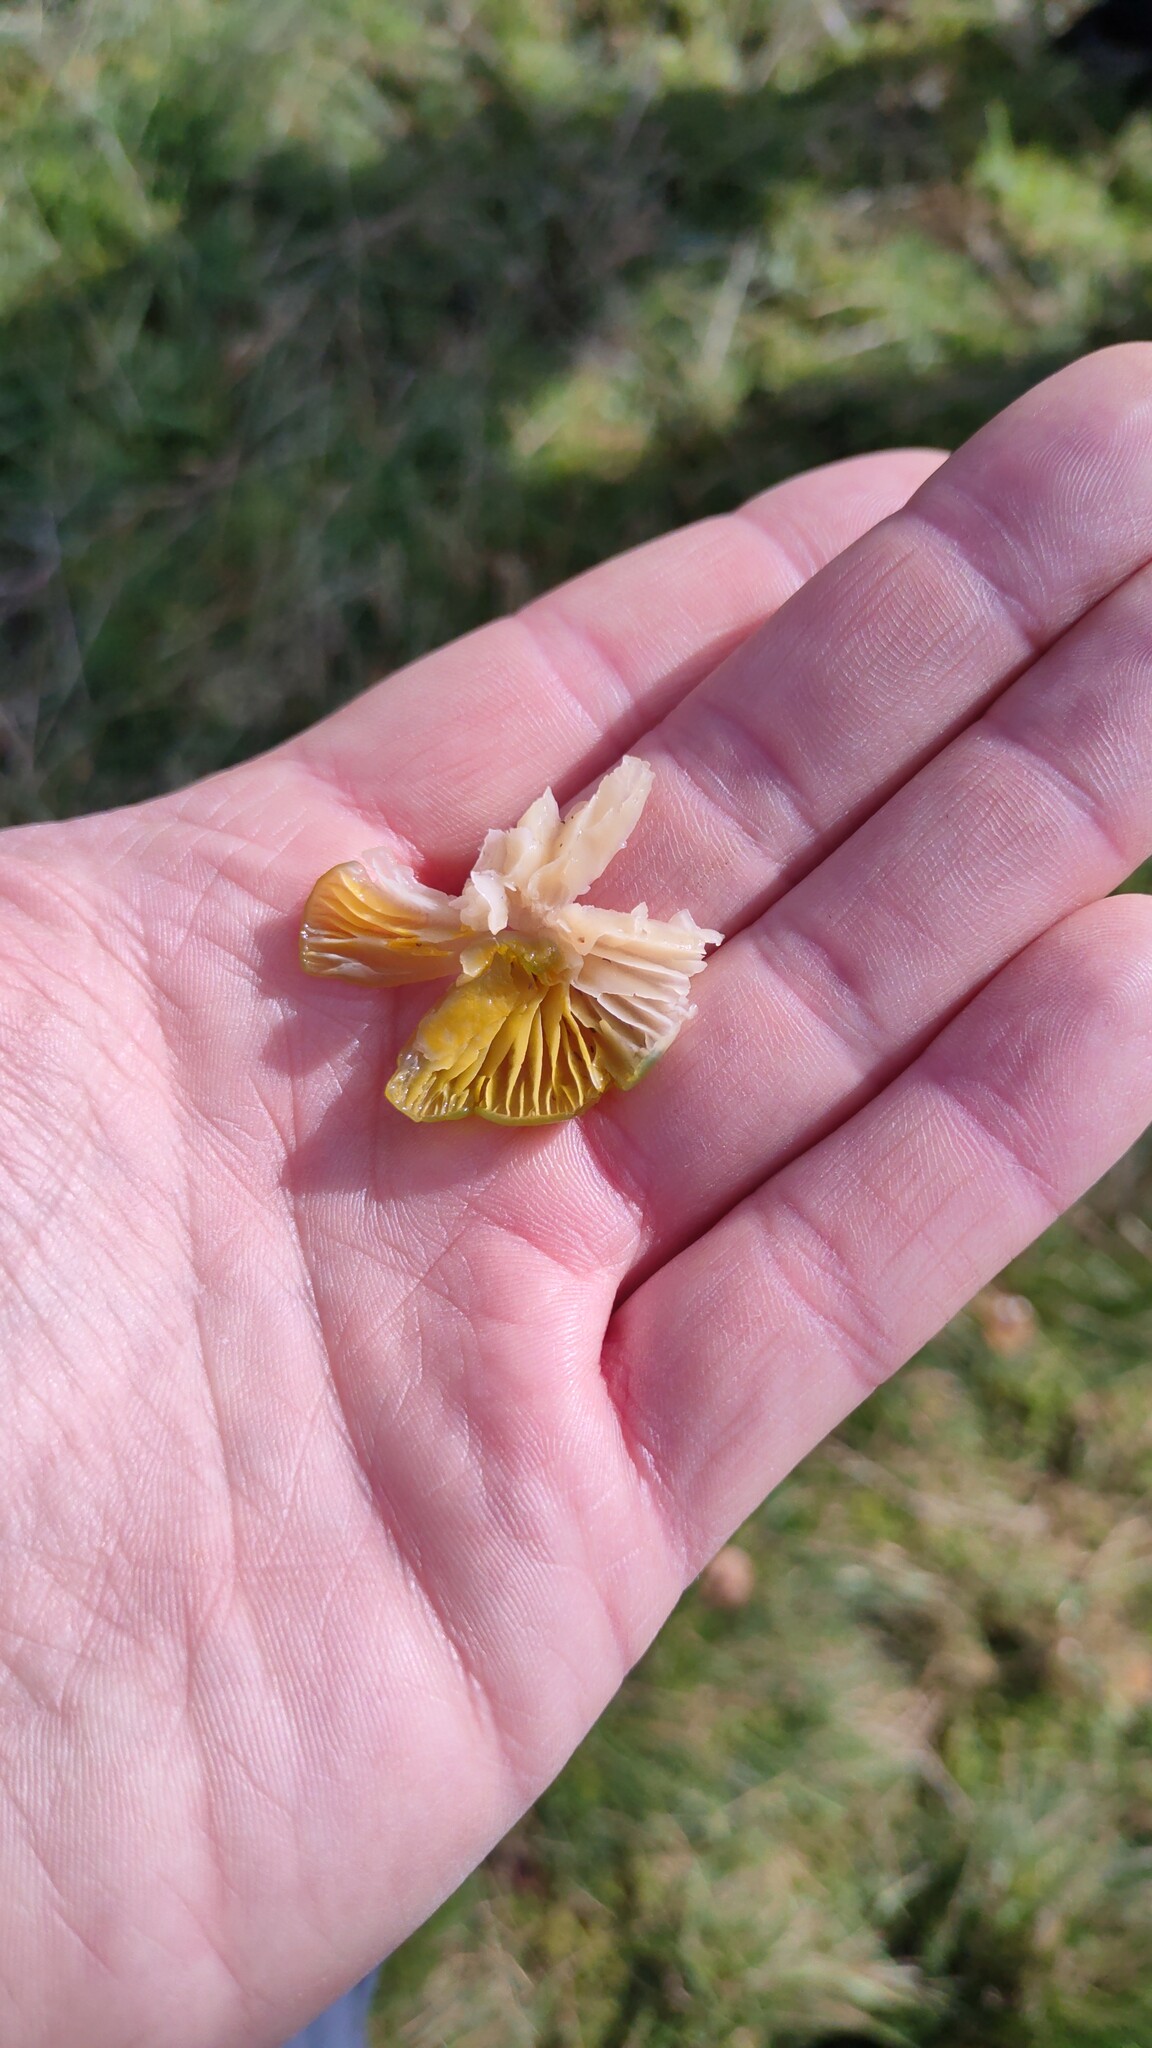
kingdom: Fungi
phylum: Basidiomycota
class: Agaricomycetes
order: Agaricales
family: Hygrophoraceae
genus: Gliophorus
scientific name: Gliophorus psittacinus
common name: Parrot wax-cap
